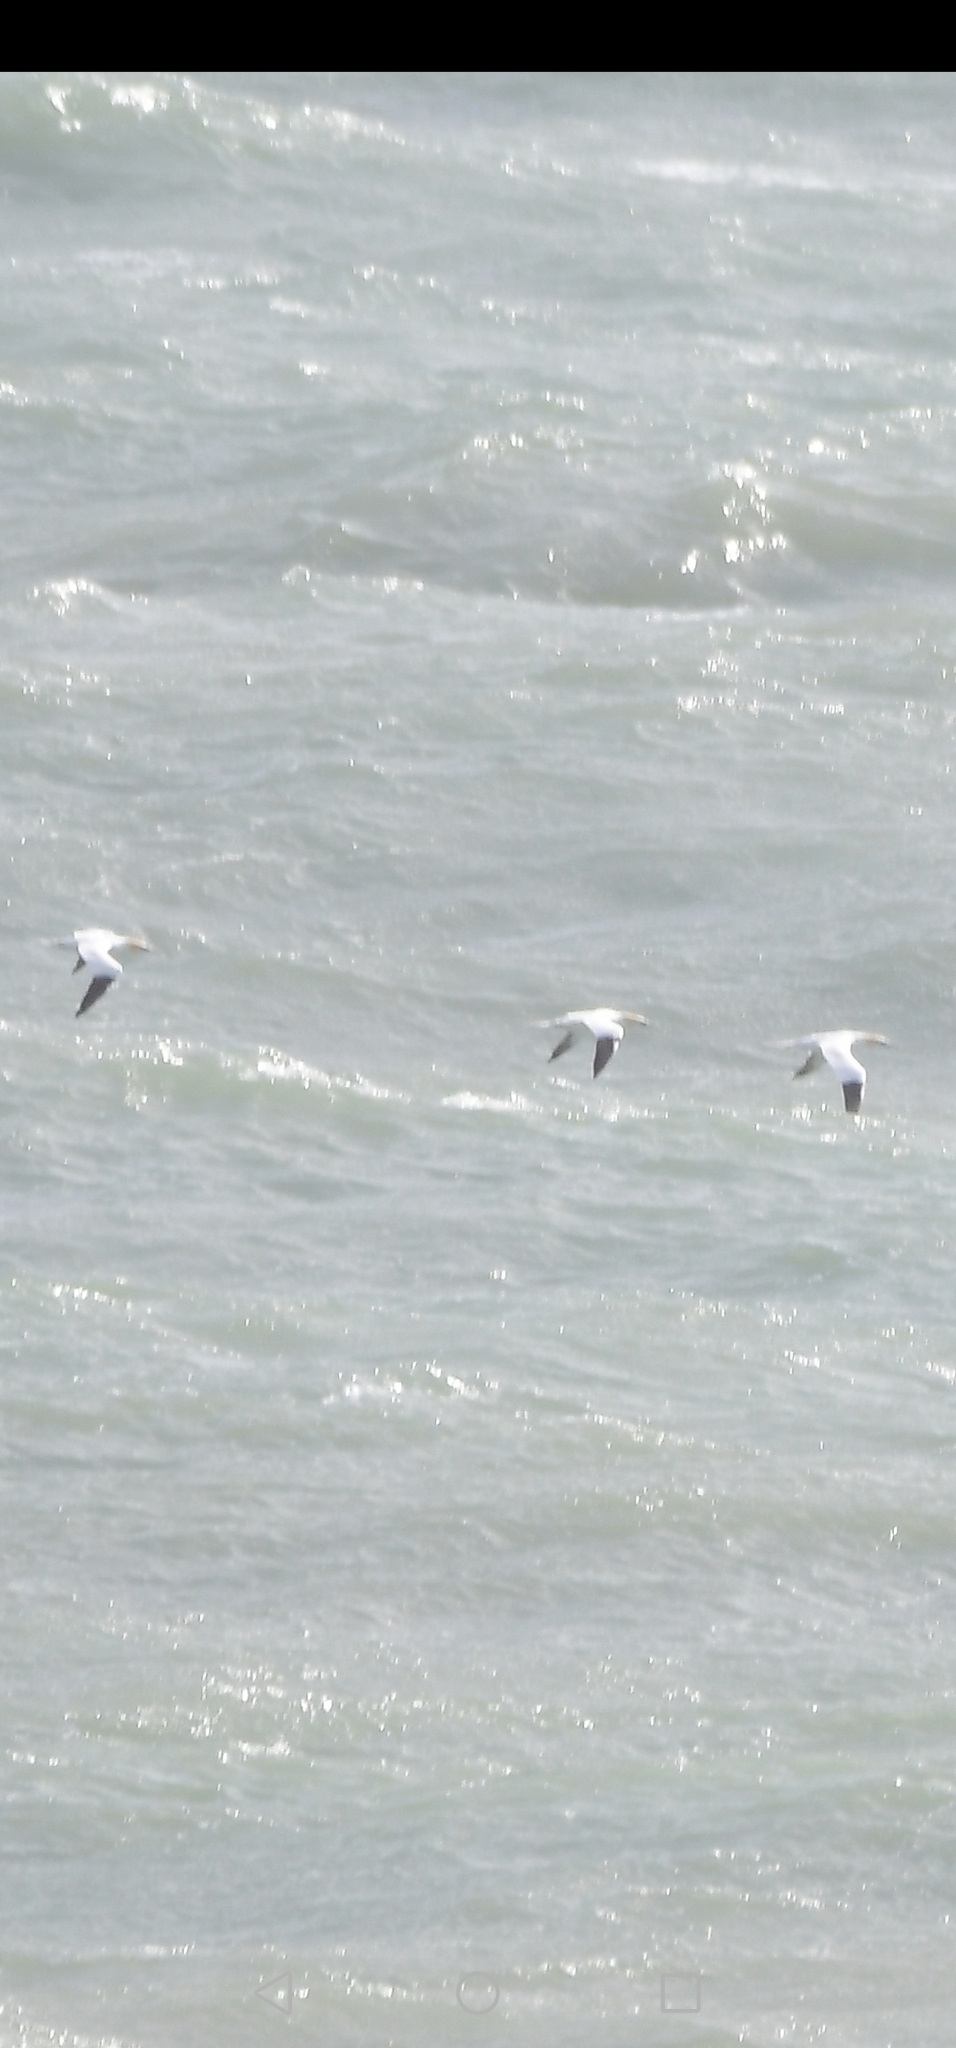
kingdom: Animalia
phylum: Chordata
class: Aves
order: Suliformes
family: Sulidae
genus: Morus
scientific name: Morus bassanus
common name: Northern gannet
